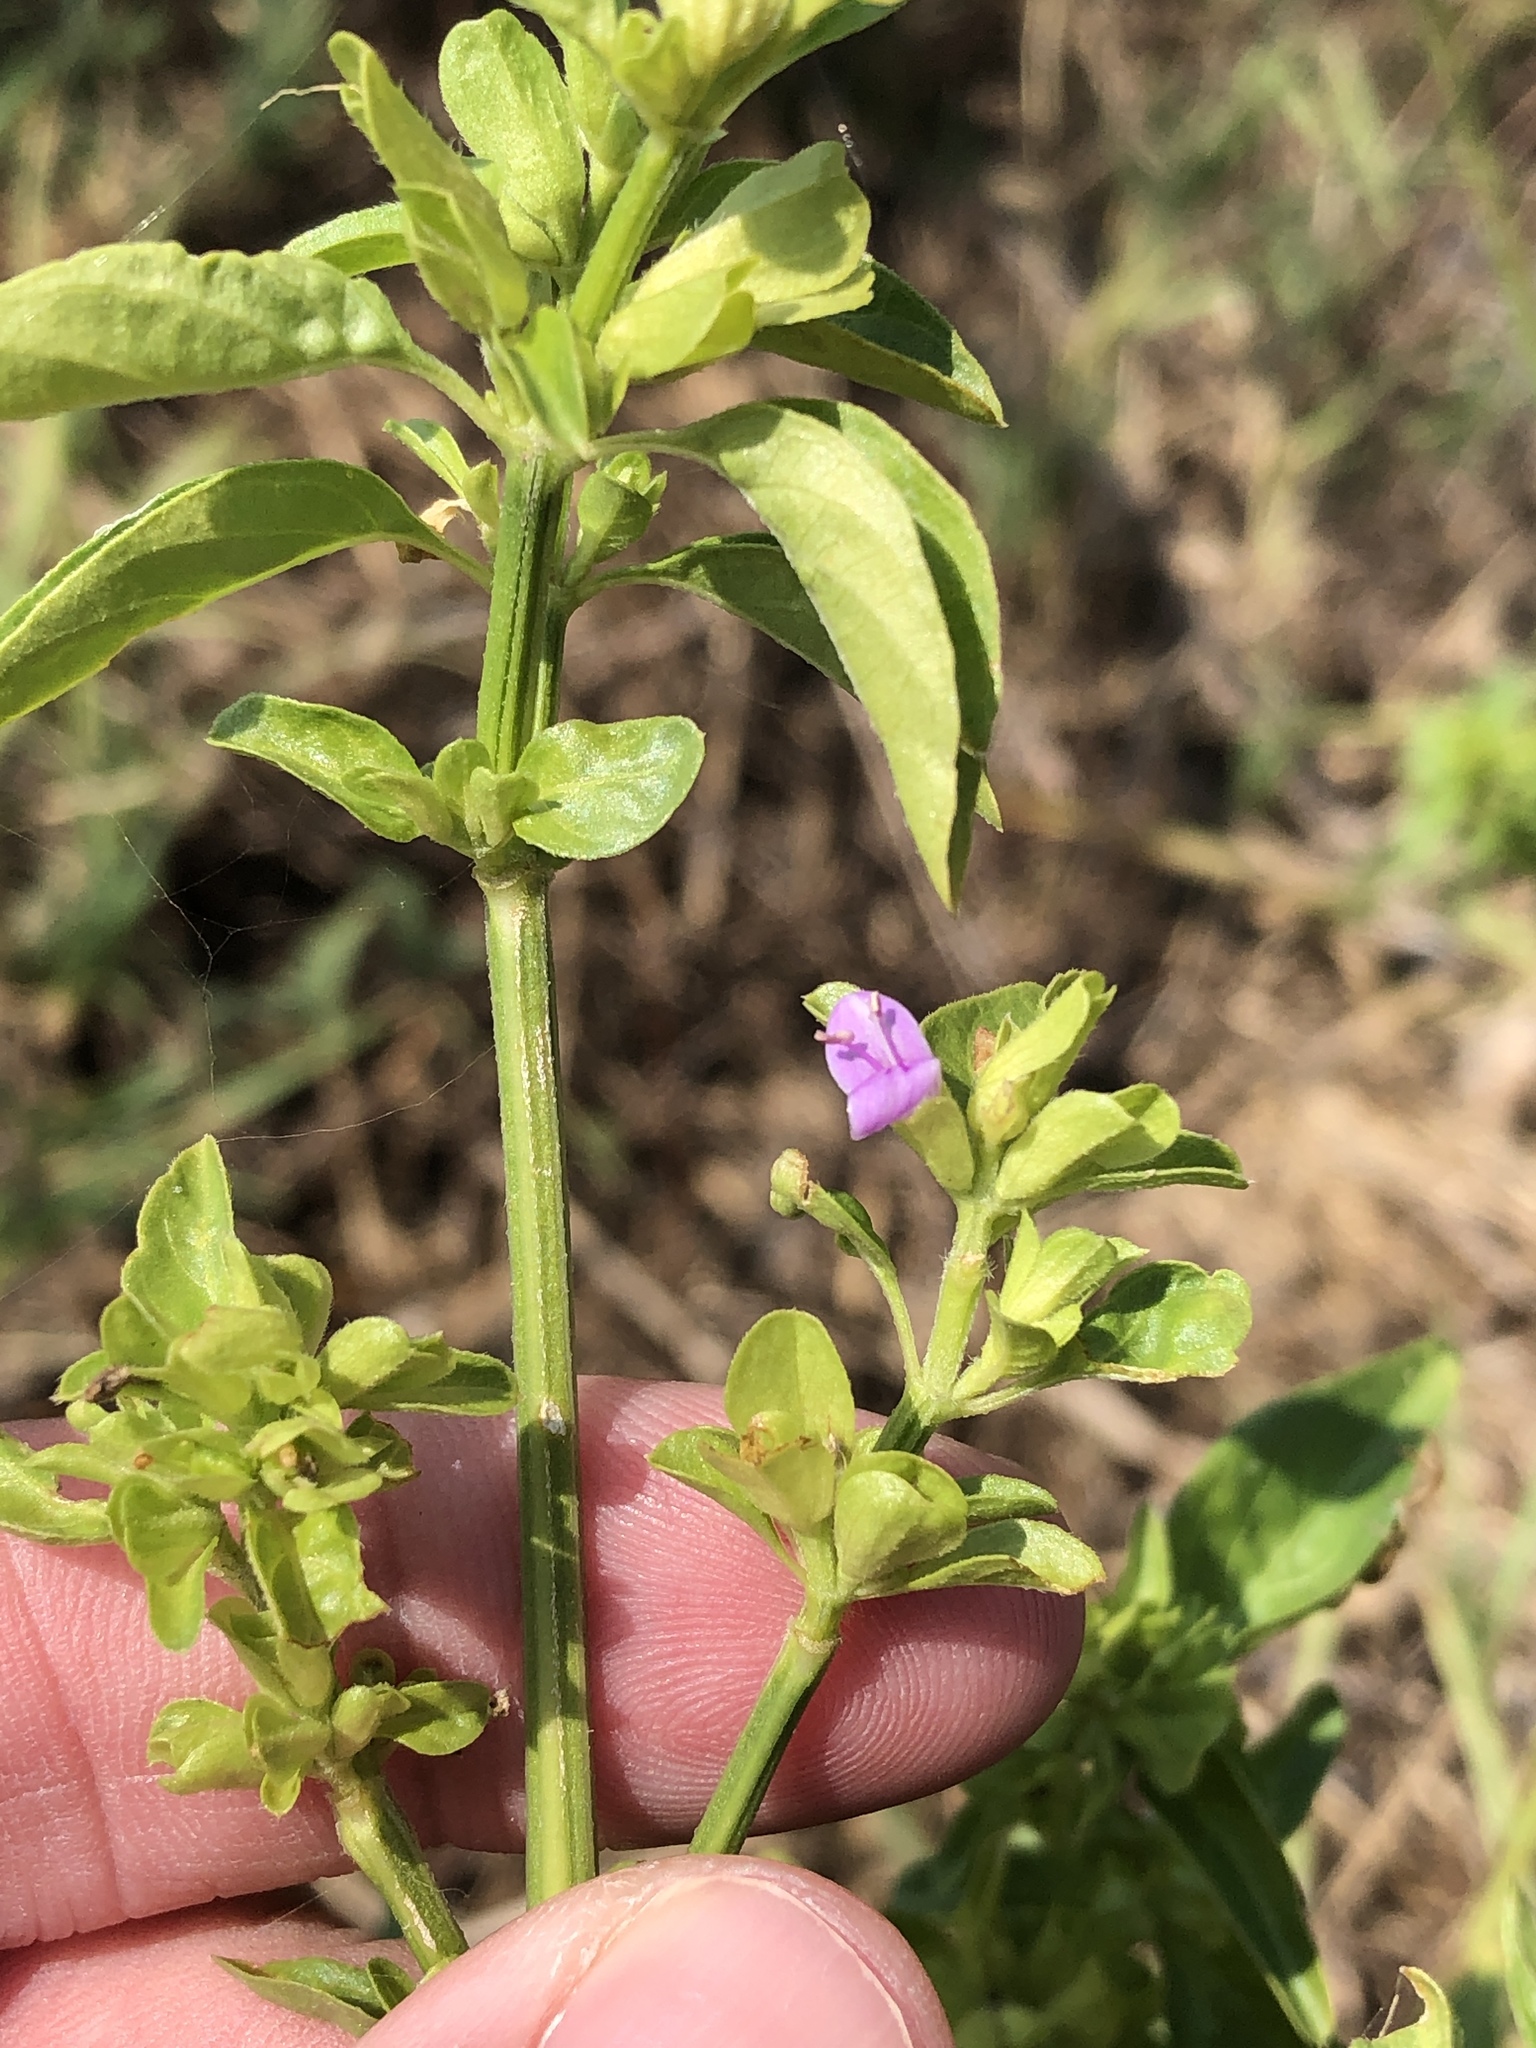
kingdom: Plantae
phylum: Tracheophyta
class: Magnoliopsida
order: Lamiales
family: Acanthaceae
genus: Dicliptera
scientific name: Dicliptera brachiata
